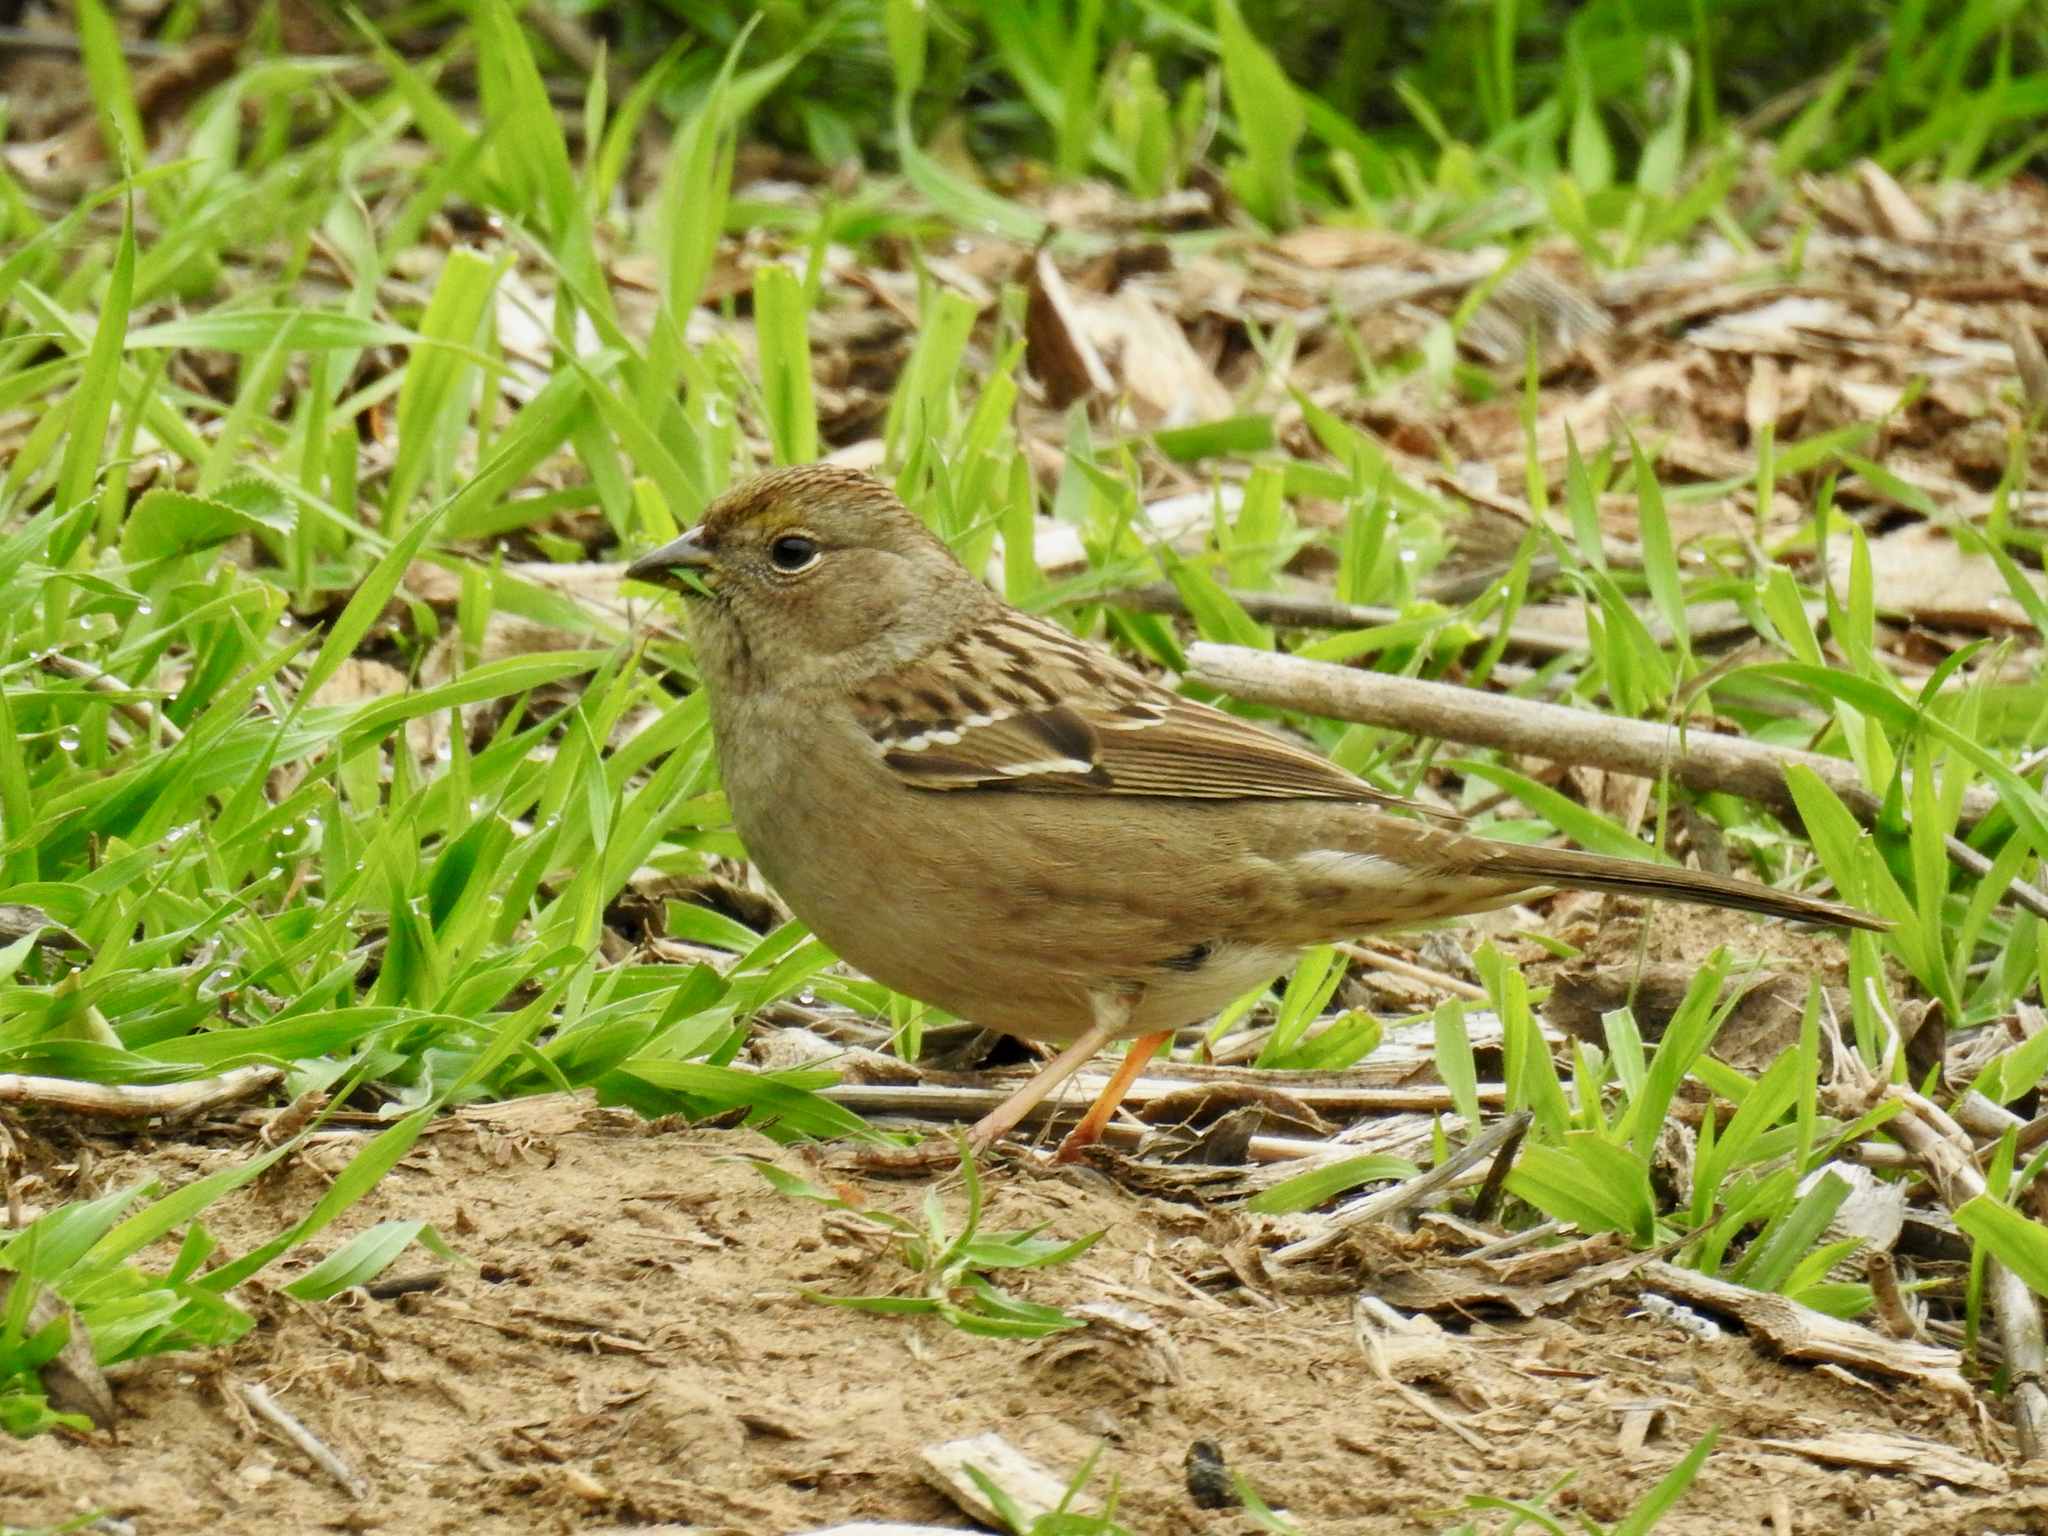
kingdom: Animalia
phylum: Chordata
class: Aves
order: Passeriformes
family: Passerellidae
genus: Zonotrichia
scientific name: Zonotrichia atricapilla
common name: Golden-crowned sparrow
